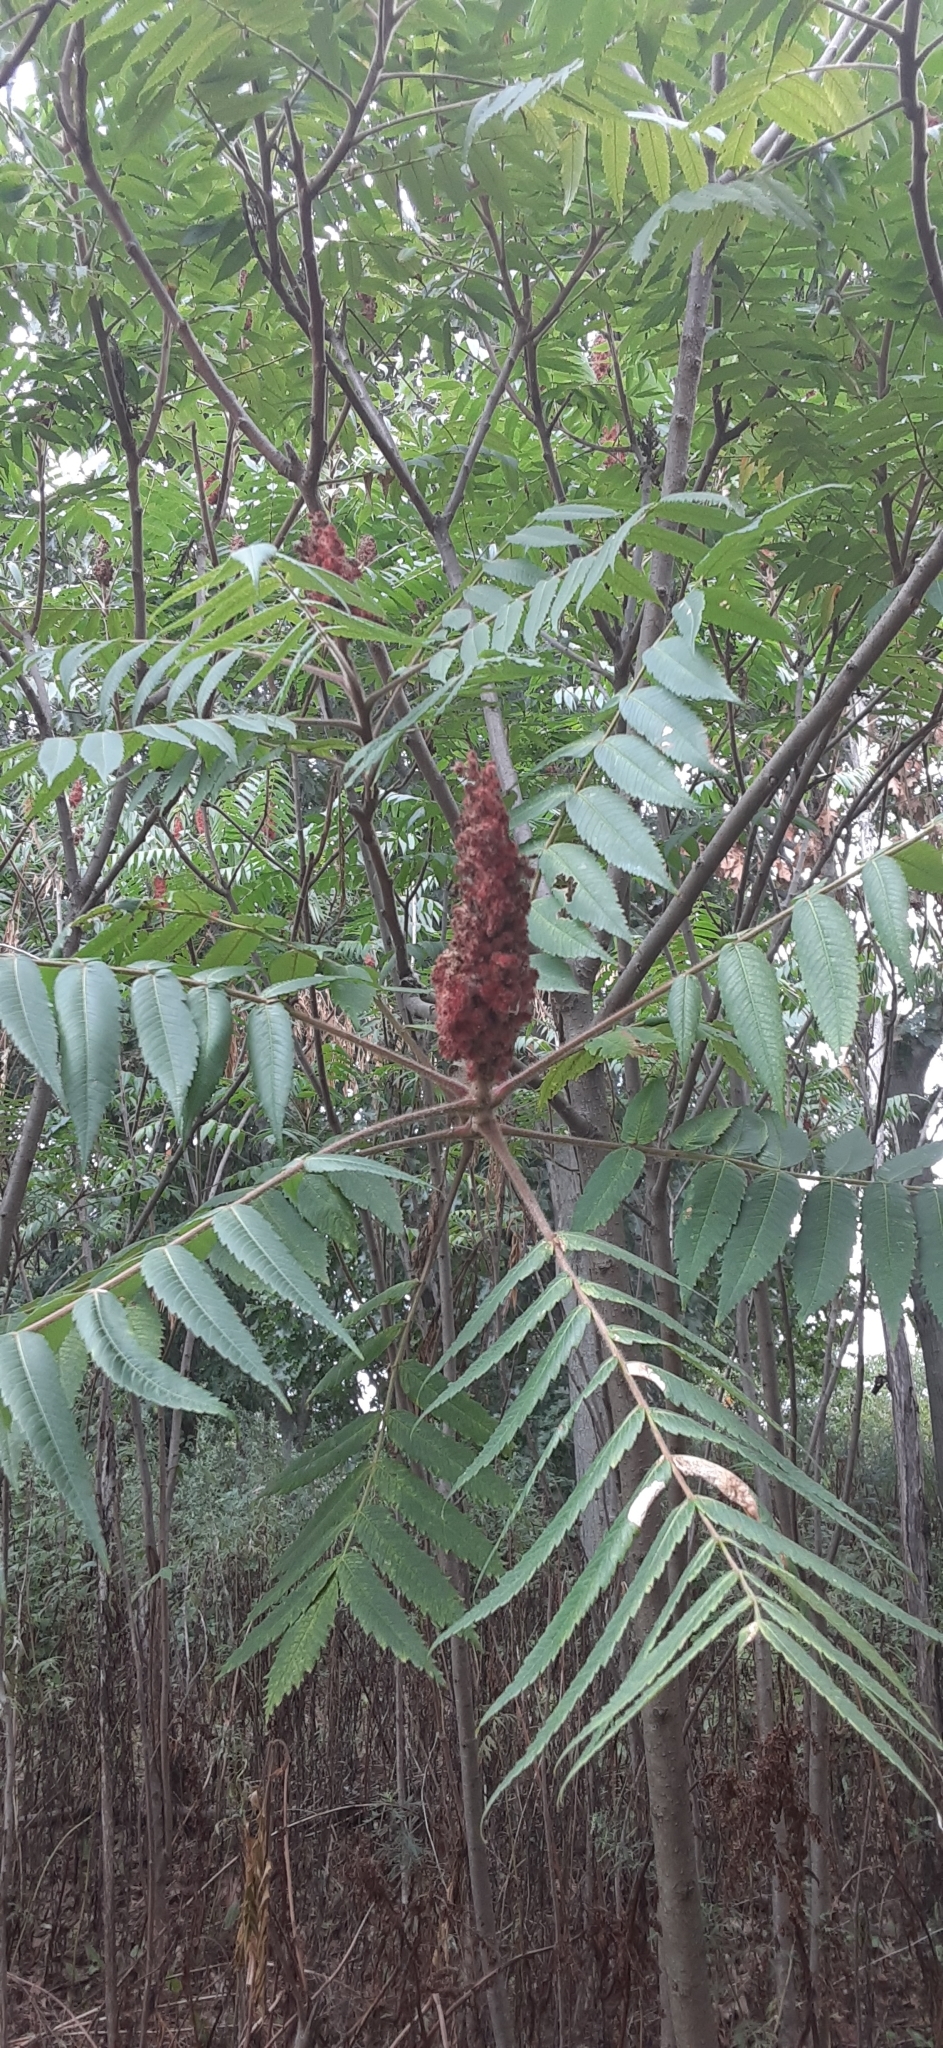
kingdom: Plantae
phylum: Tracheophyta
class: Magnoliopsida
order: Sapindales
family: Anacardiaceae
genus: Rhus
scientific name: Rhus typhina
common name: Staghorn sumac
